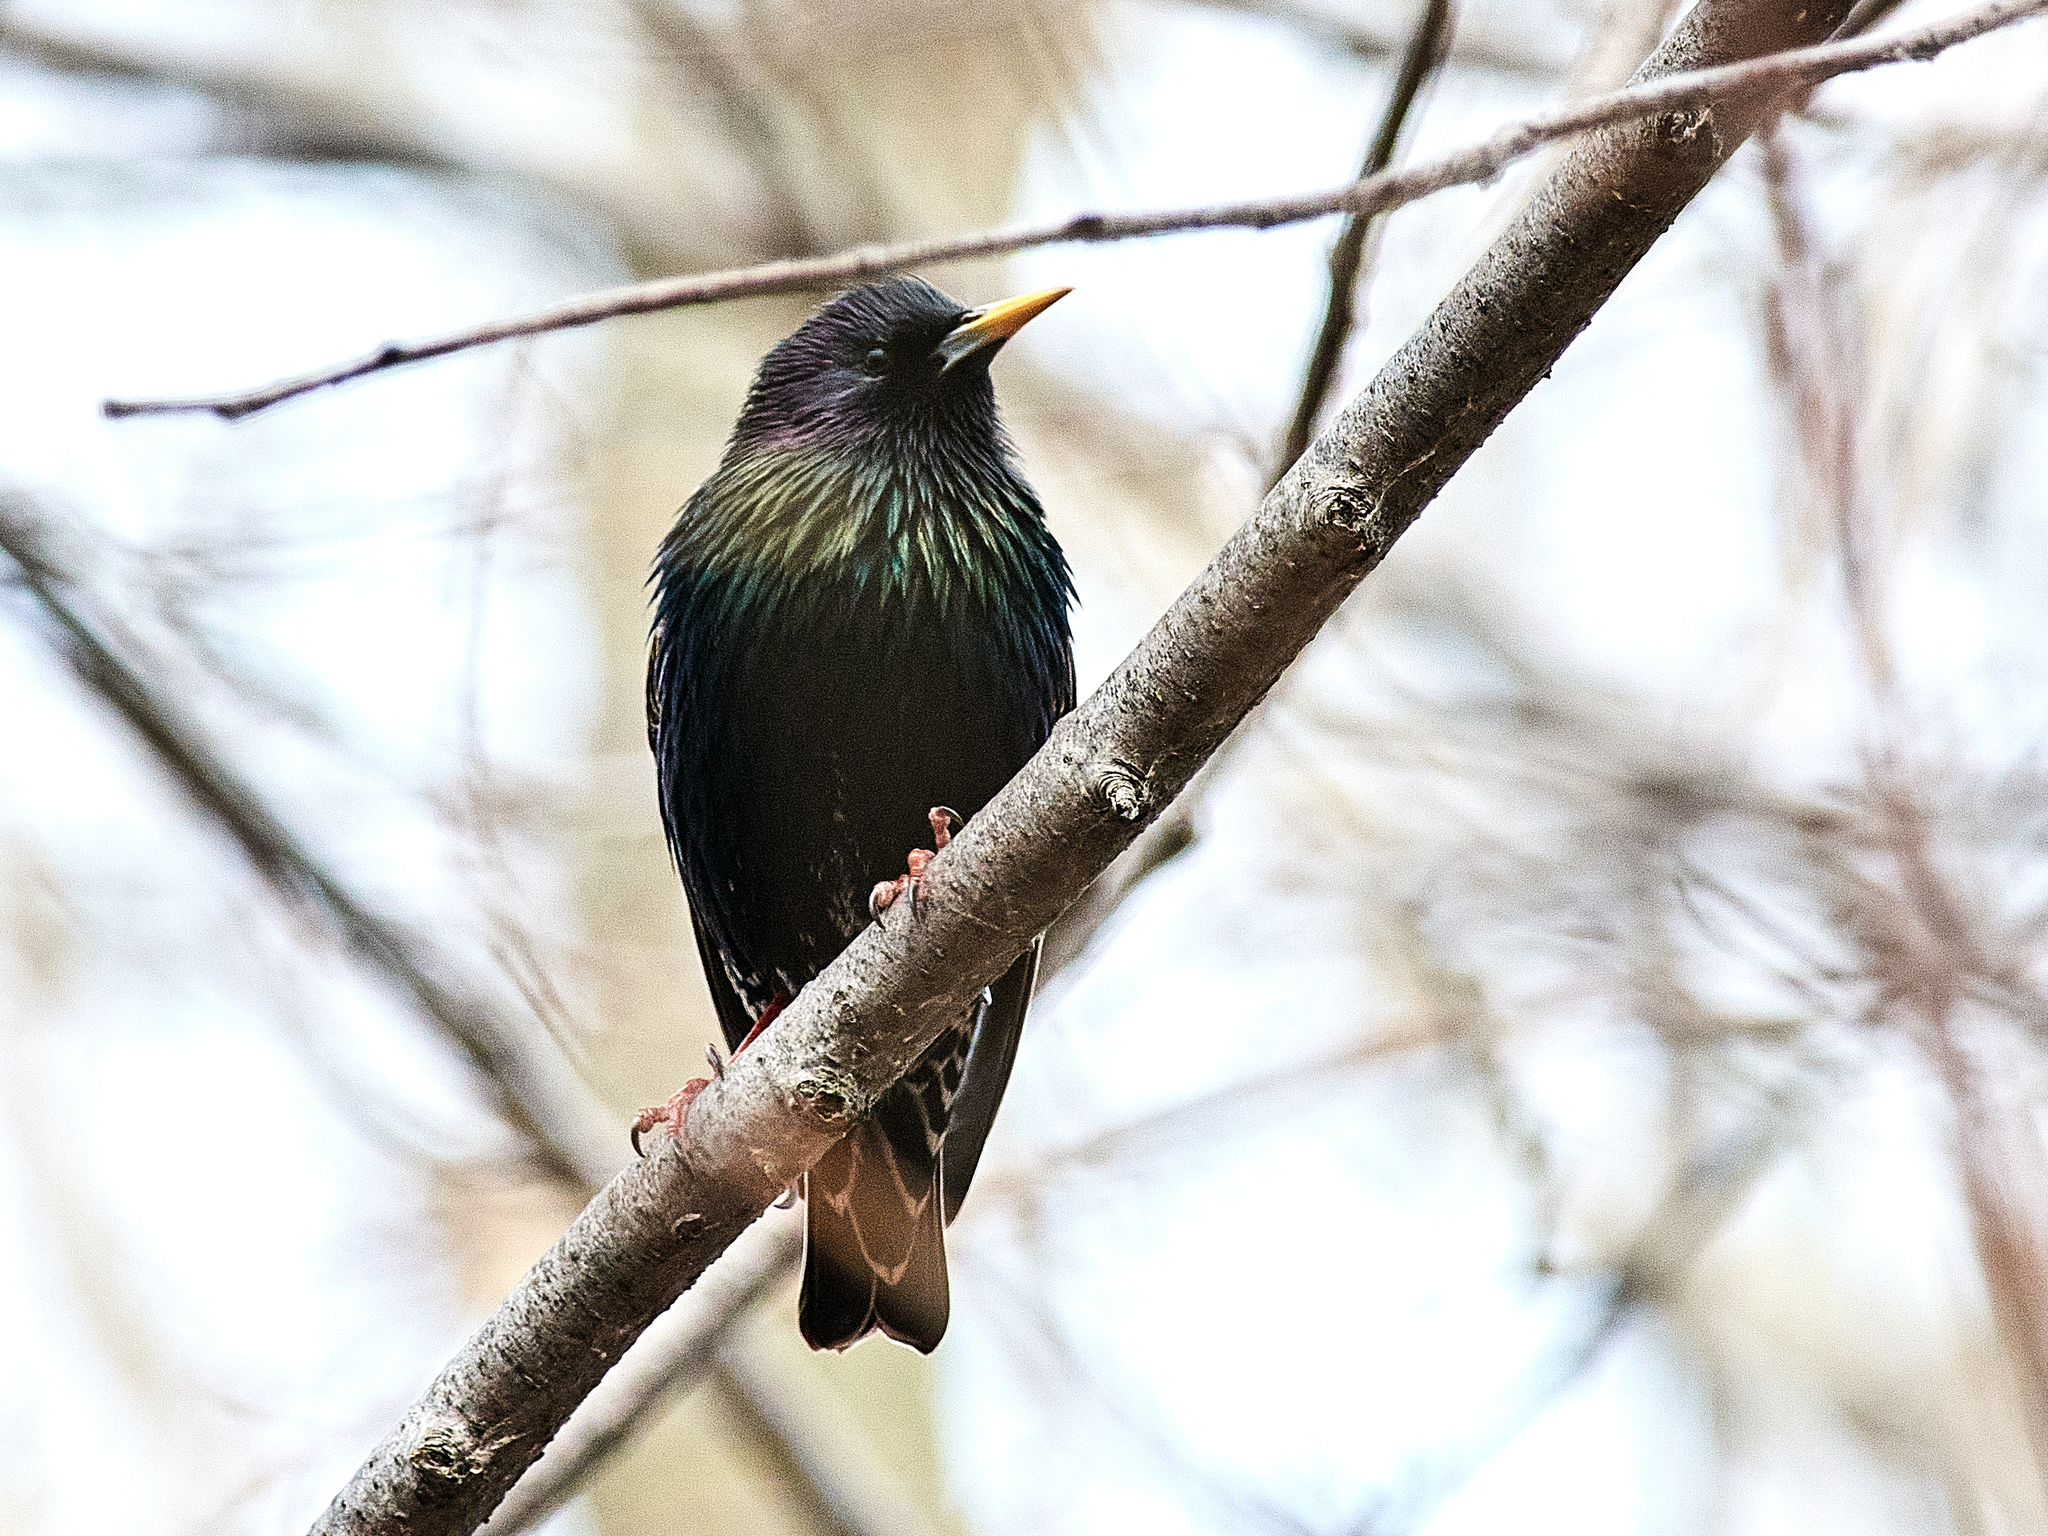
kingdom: Animalia
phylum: Chordata
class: Aves
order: Passeriformes
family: Sturnidae
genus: Sturnus
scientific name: Sturnus vulgaris
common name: Common starling
